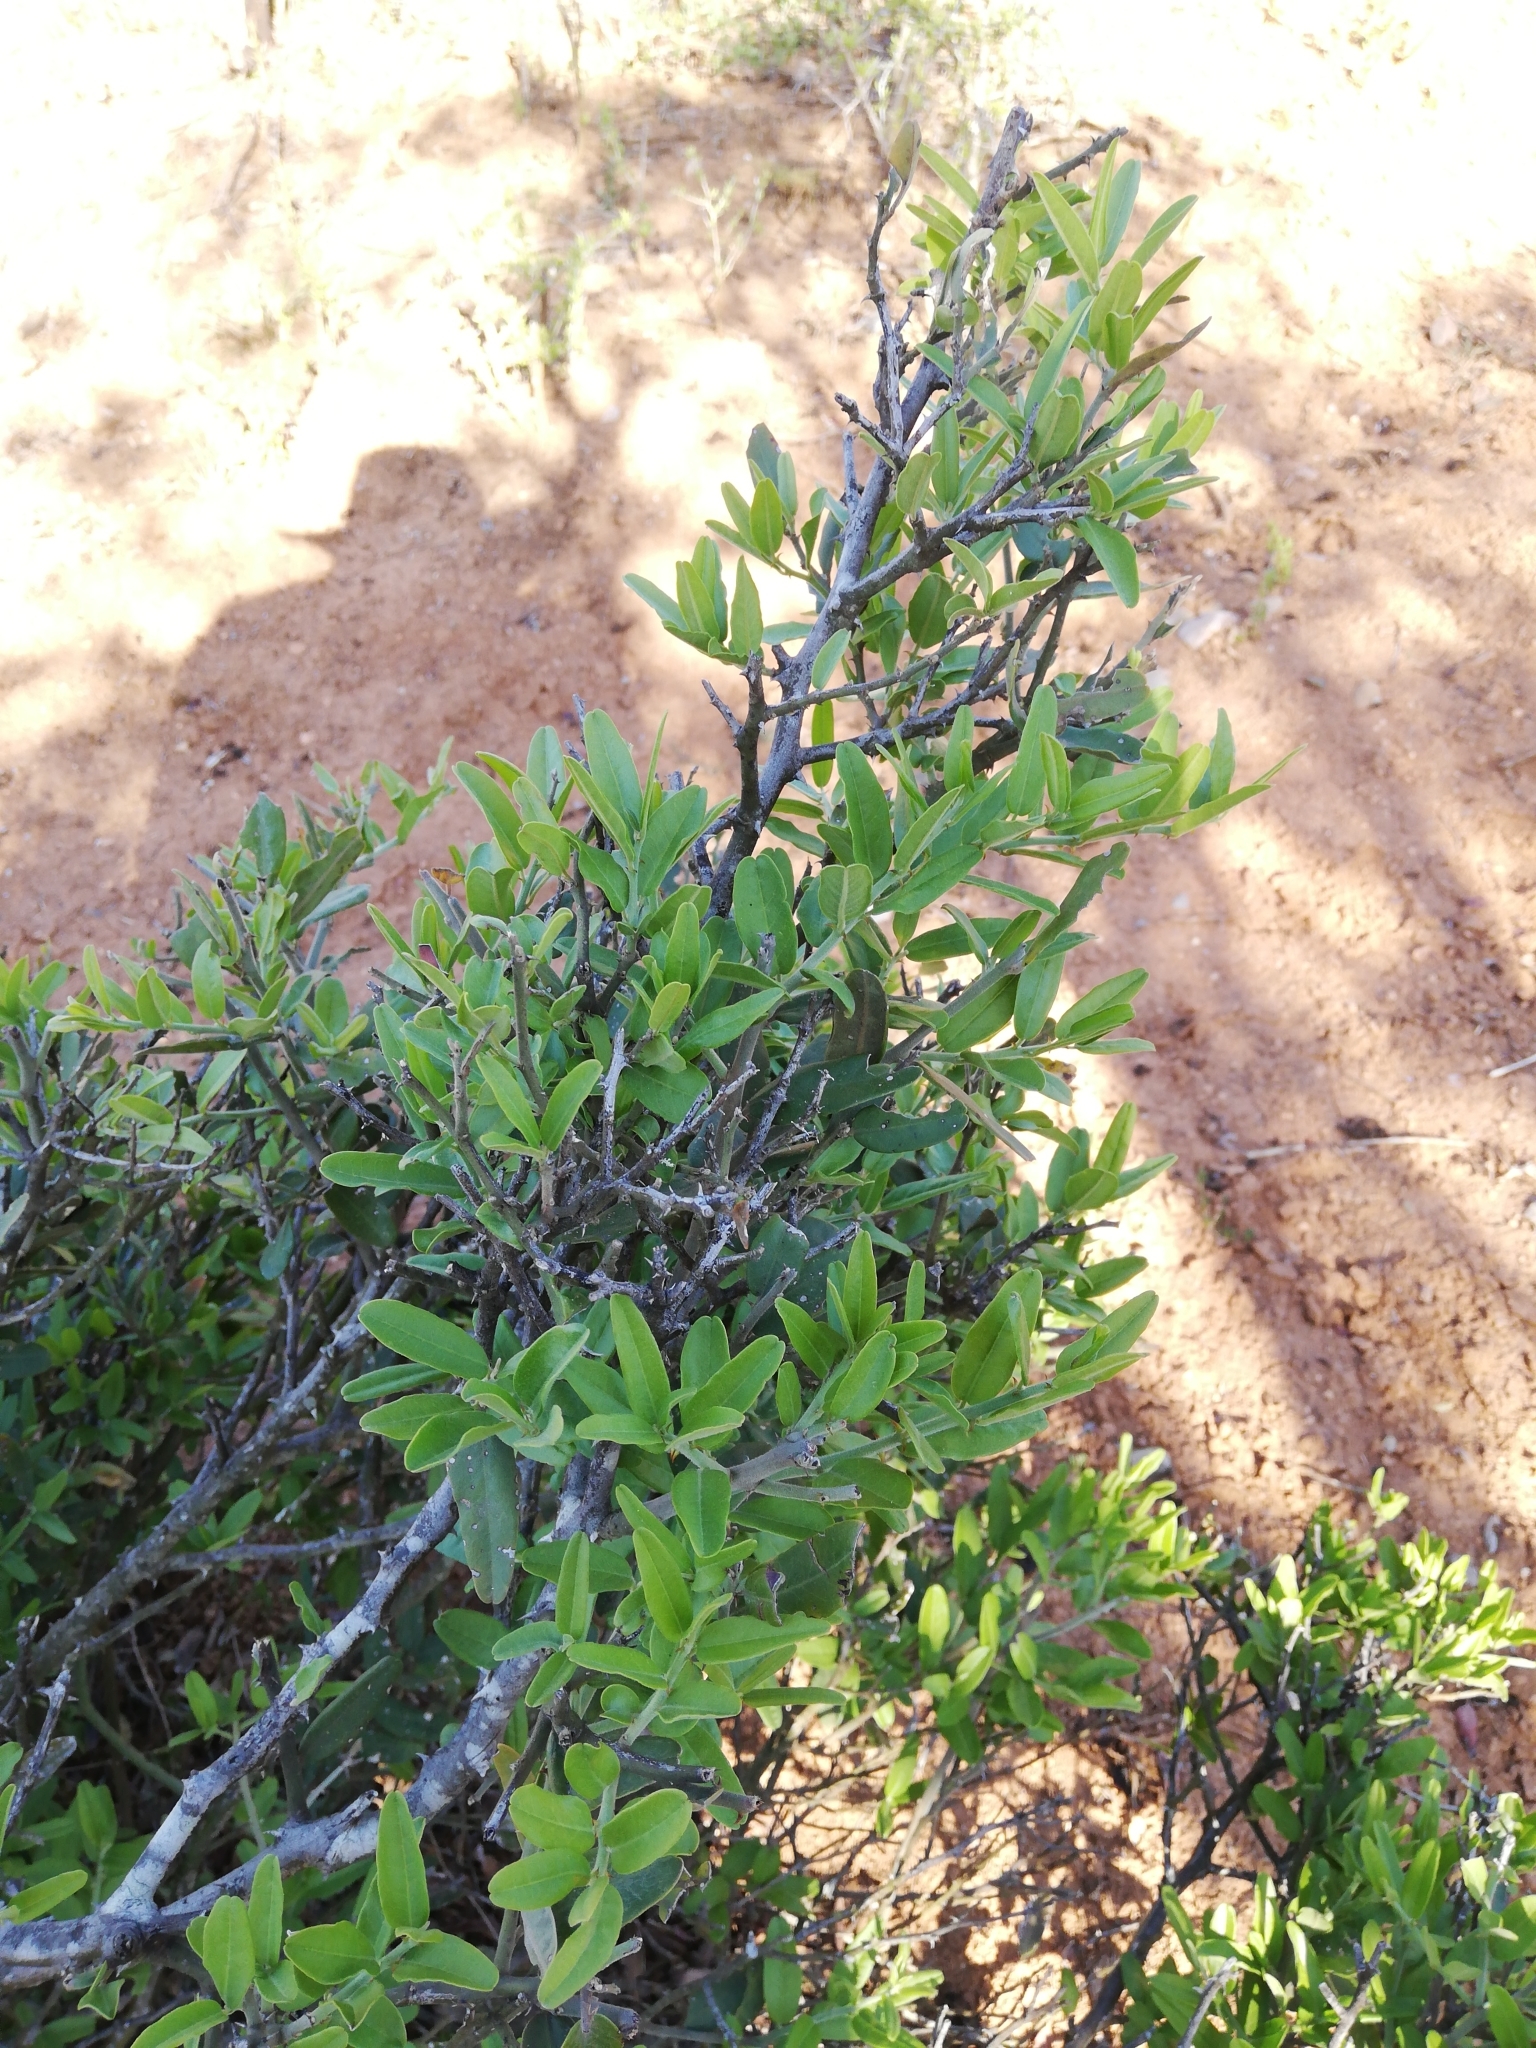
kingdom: Plantae
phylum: Tracheophyta
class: Magnoliopsida
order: Brassicales
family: Capparaceae
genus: Capparis
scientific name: Capparis sepiaria
